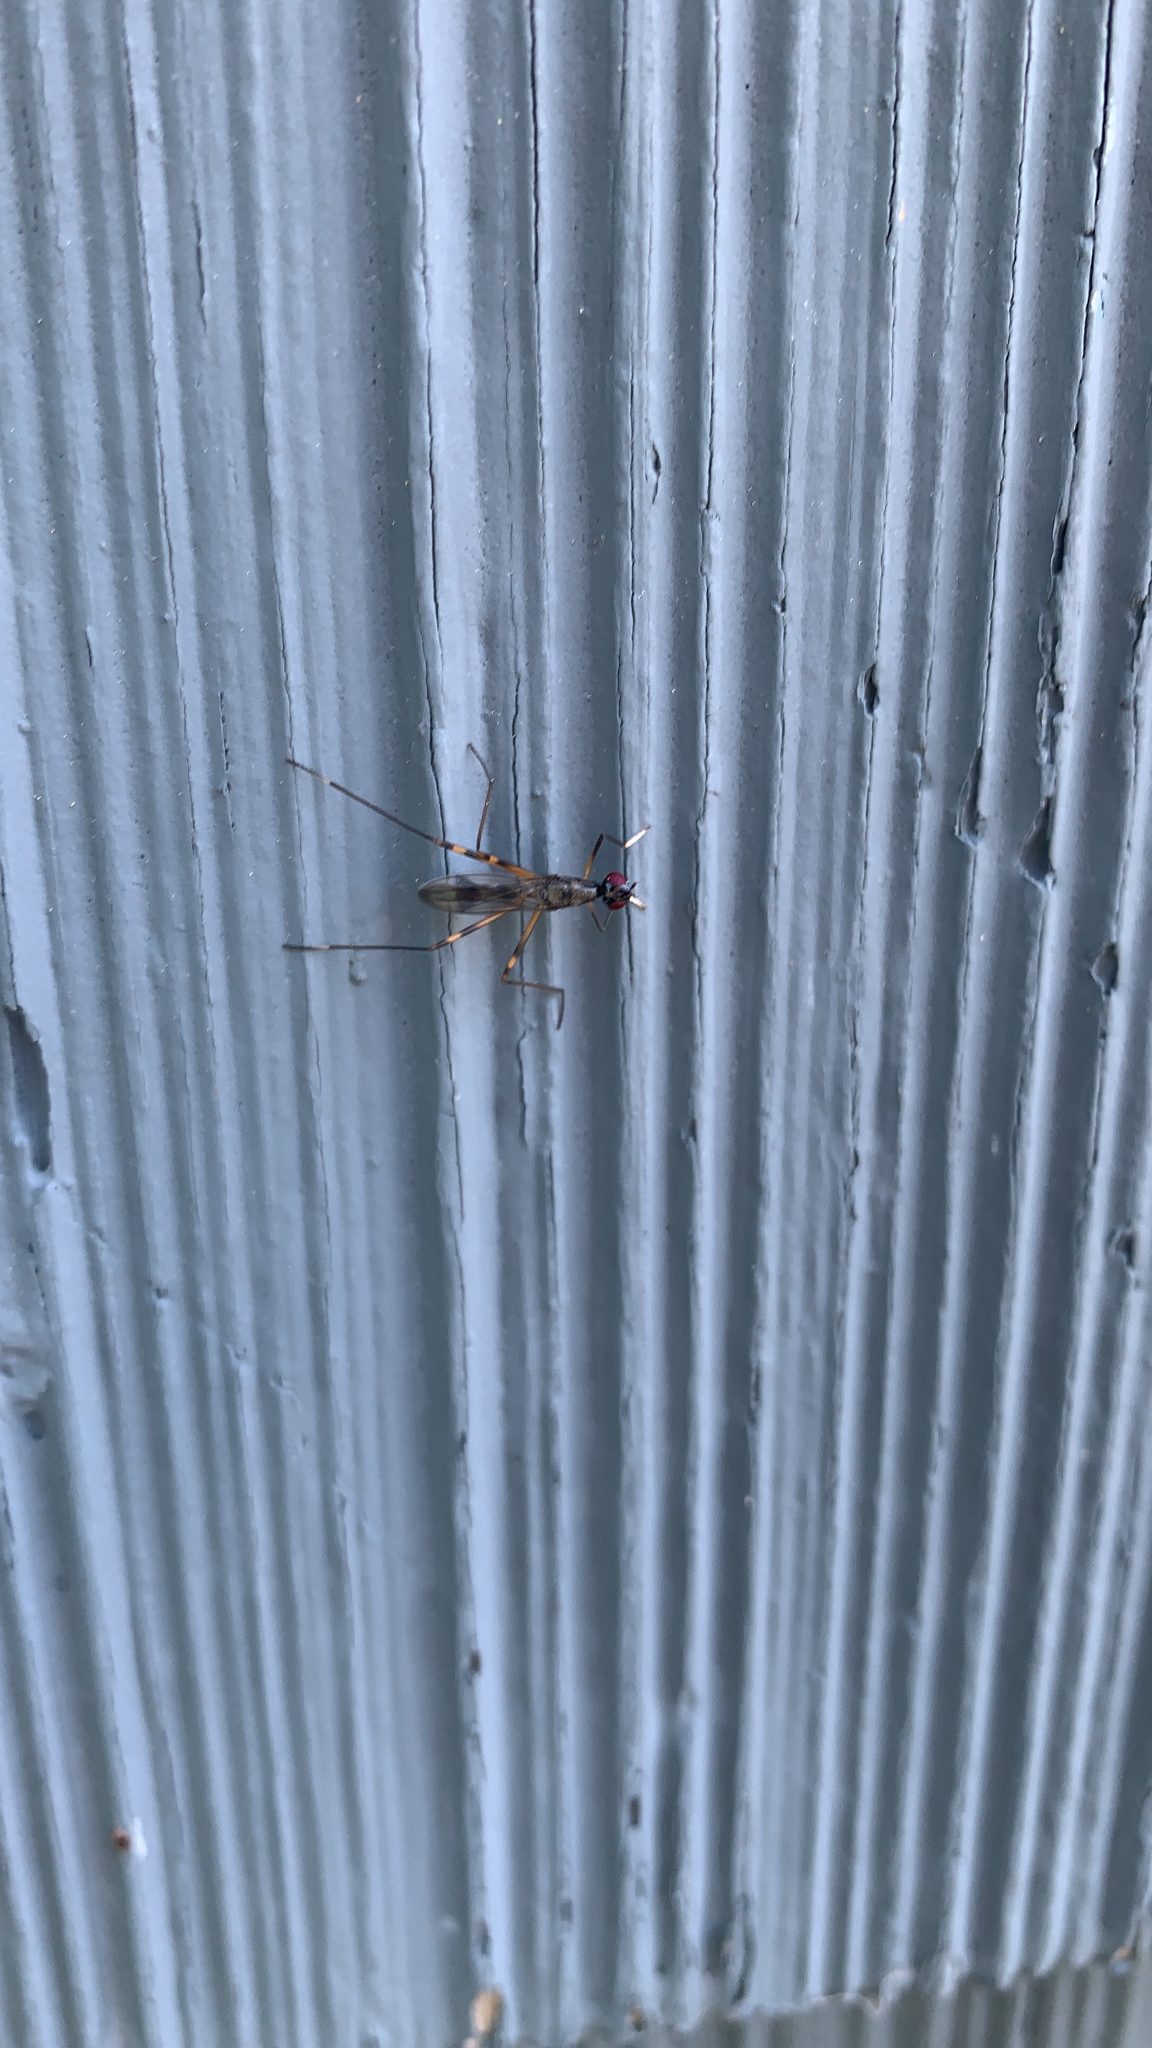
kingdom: Animalia
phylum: Arthropoda
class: Insecta
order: Diptera
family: Micropezidae
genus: Rainieria
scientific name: Rainieria antennaepes
